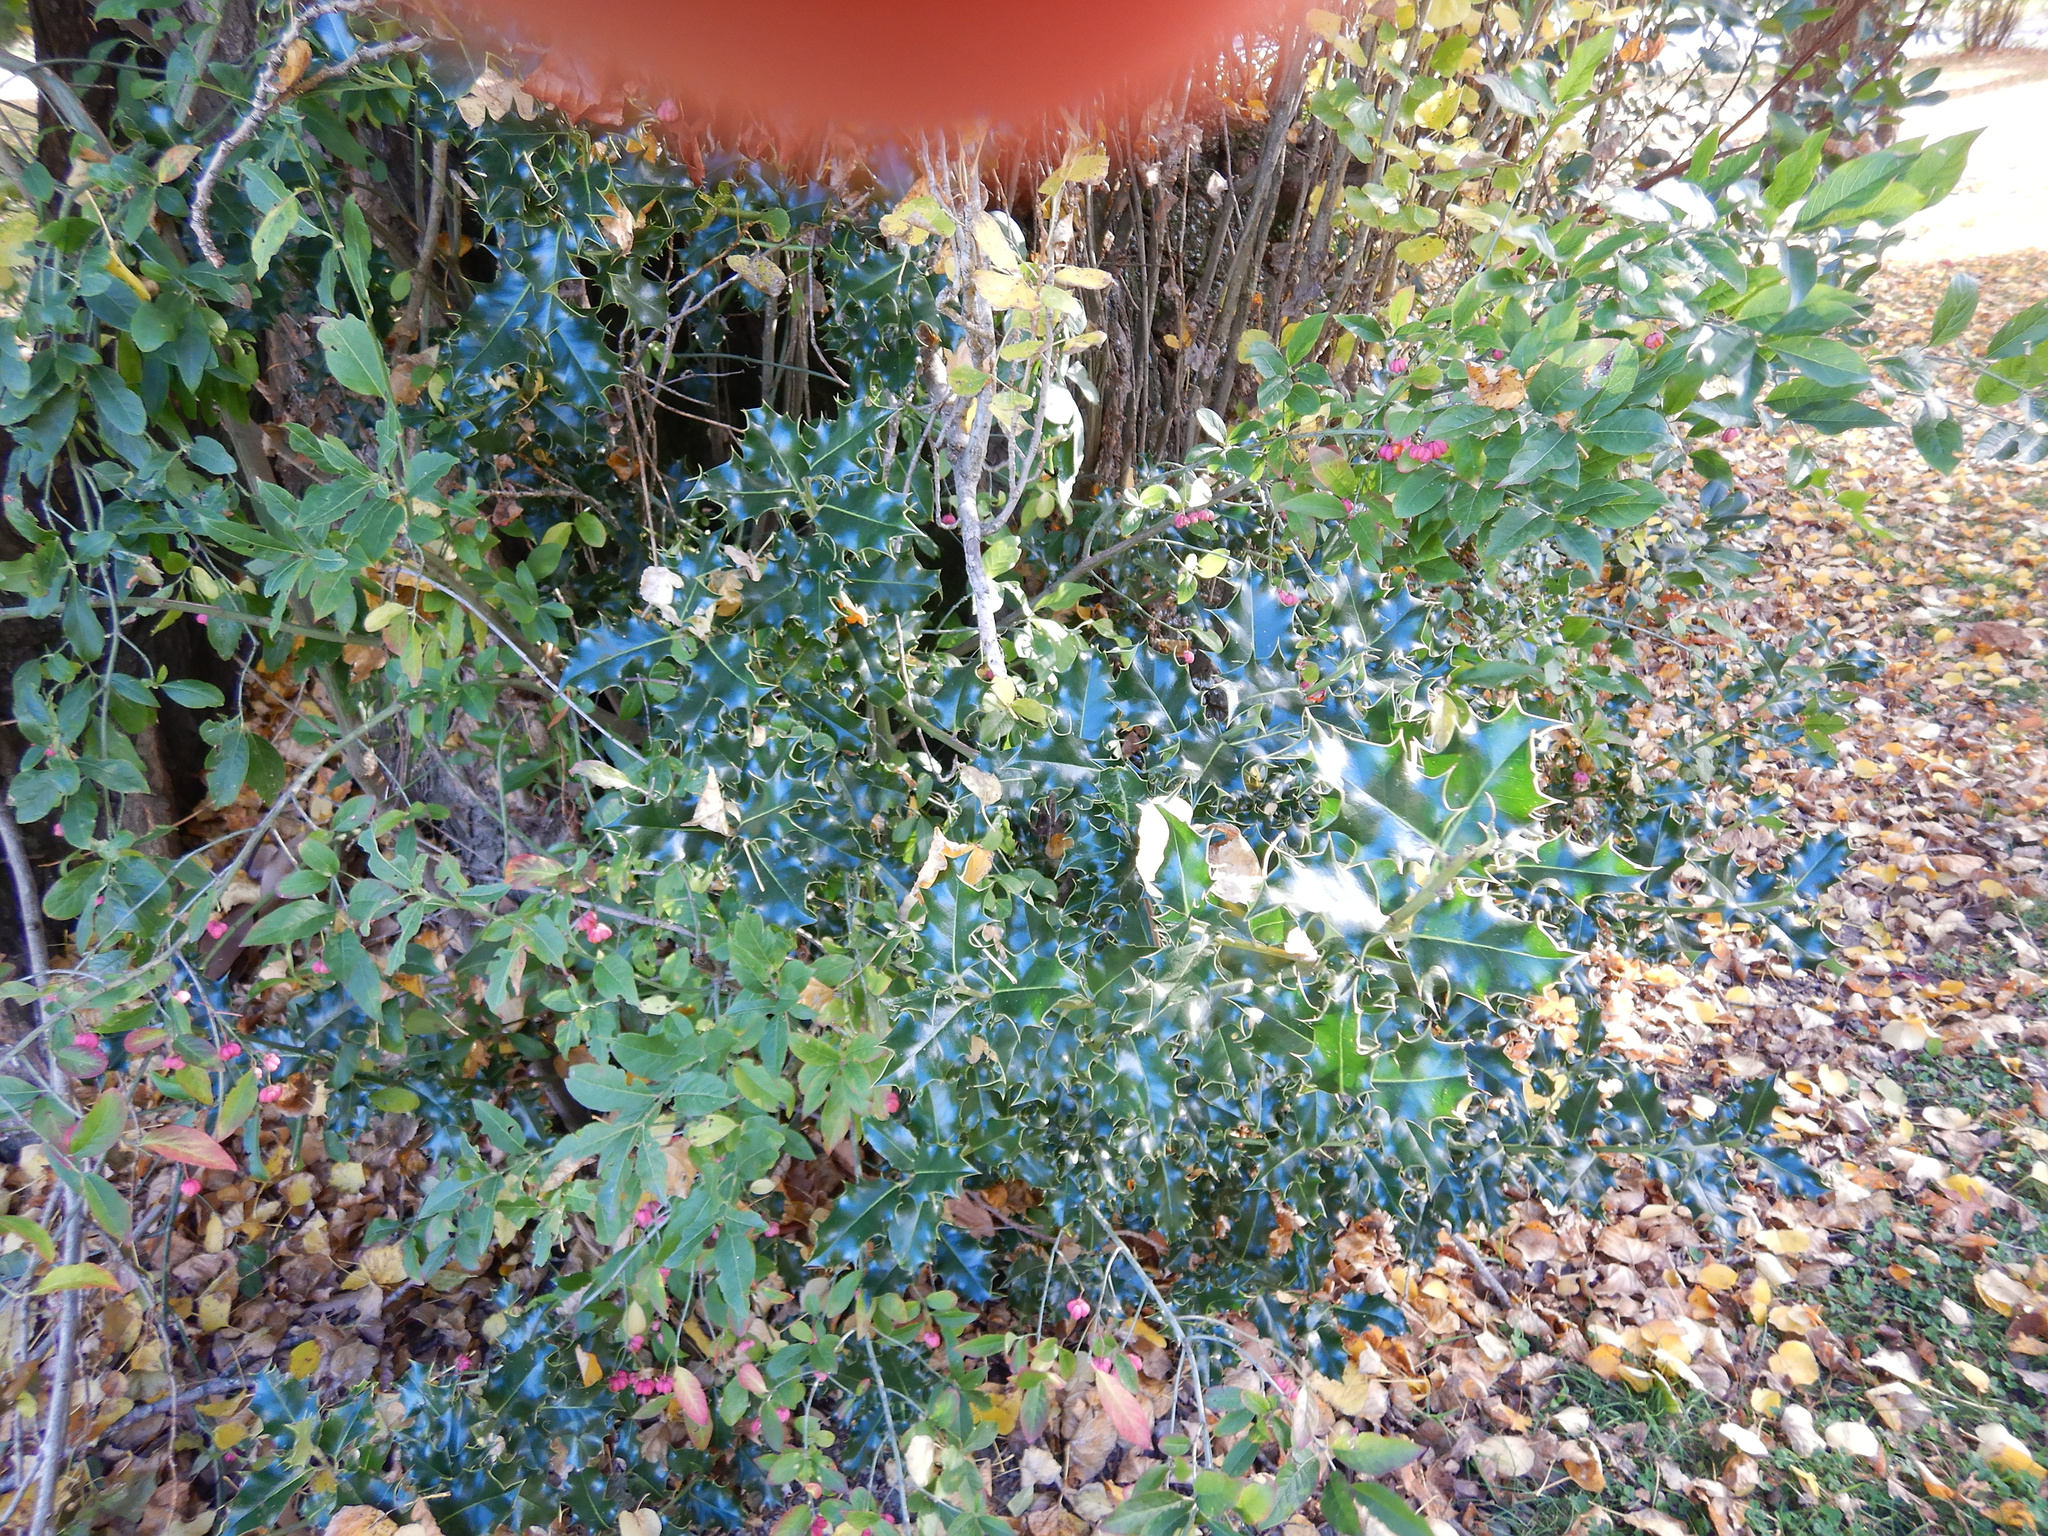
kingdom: Plantae
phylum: Tracheophyta
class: Magnoliopsida
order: Aquifoliales
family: Aquifoliaceae
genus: Ilex
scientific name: Ilex aquifolium
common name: English holly
